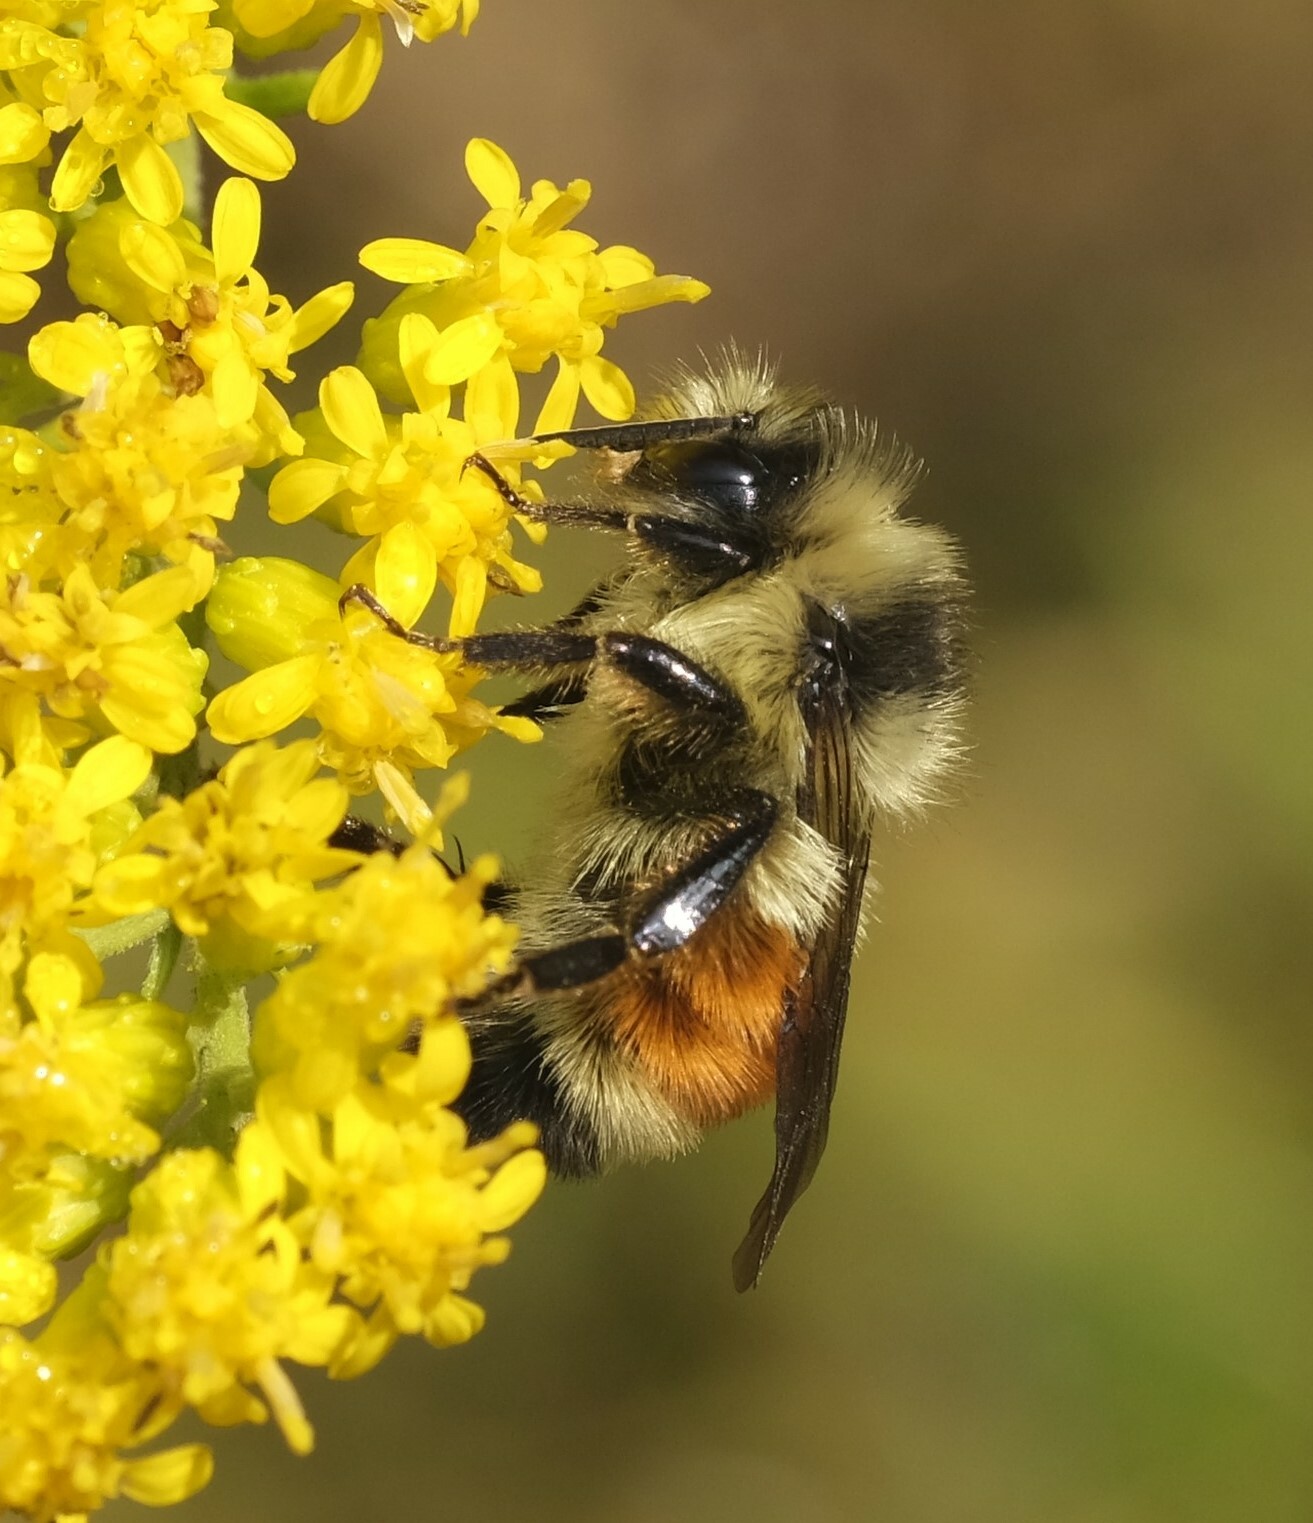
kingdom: Animalia
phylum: Arthropoda
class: Insecta
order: Hymenoptera
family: Apidae
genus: Bombus
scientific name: Bombus ternarius
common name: Tri-colored bumble bee
